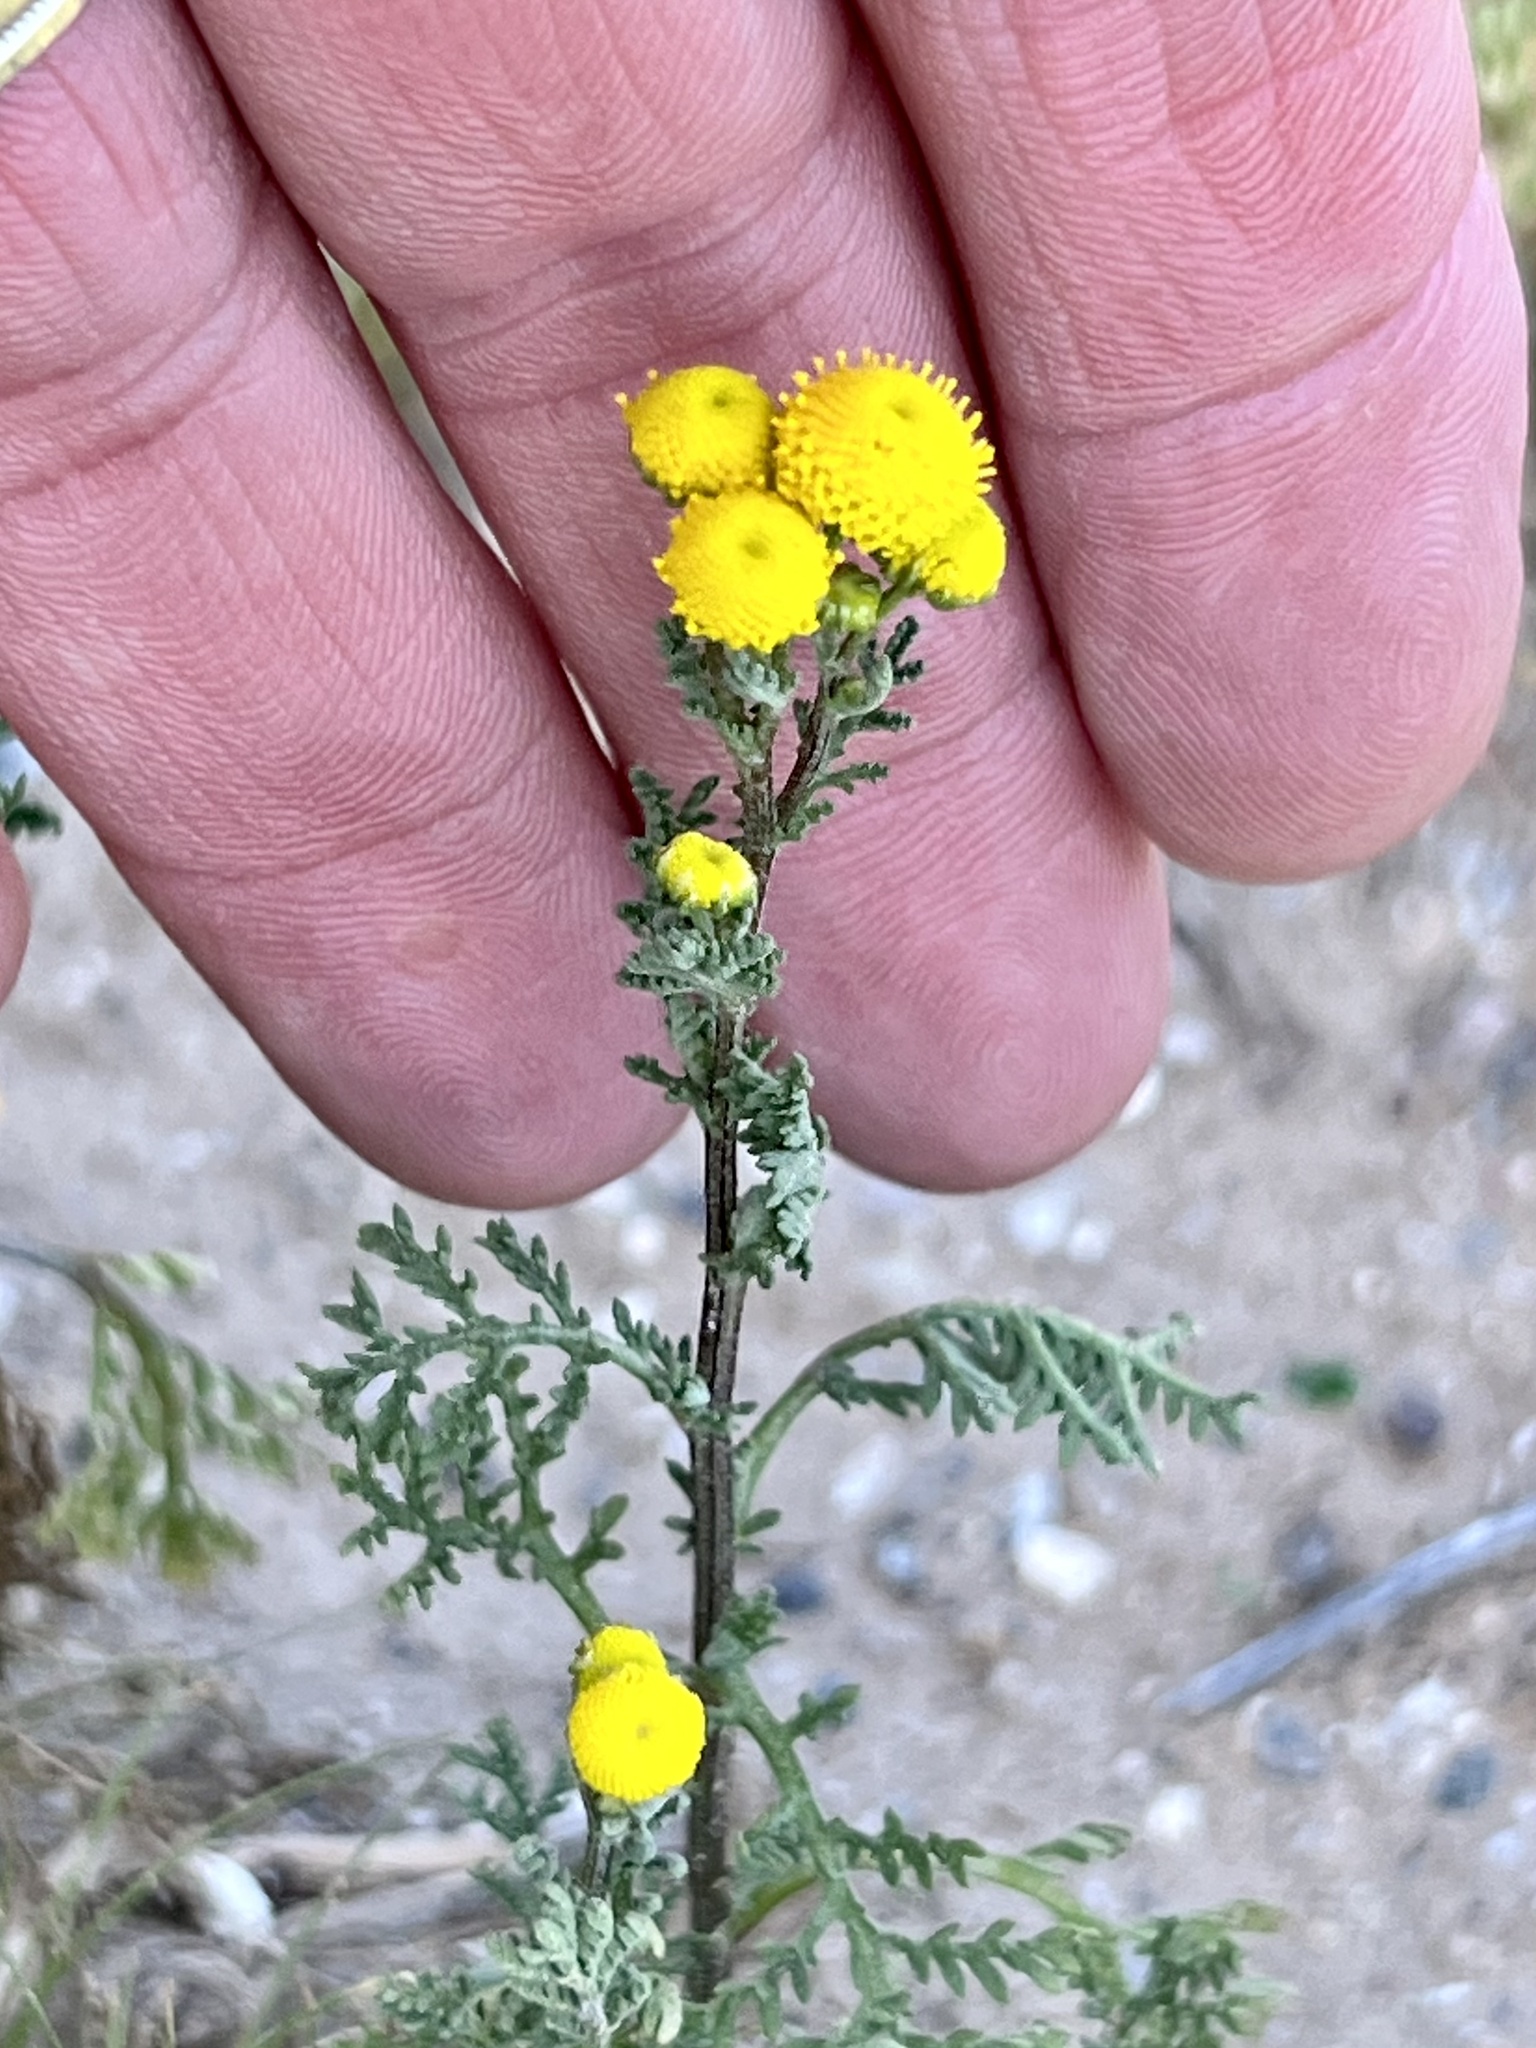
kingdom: Plantae
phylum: Tracheophyta
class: Magnoliopsida
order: Asterales
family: Asteraceae
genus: Oncosiphon
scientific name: Oncosiphon pilulifer
